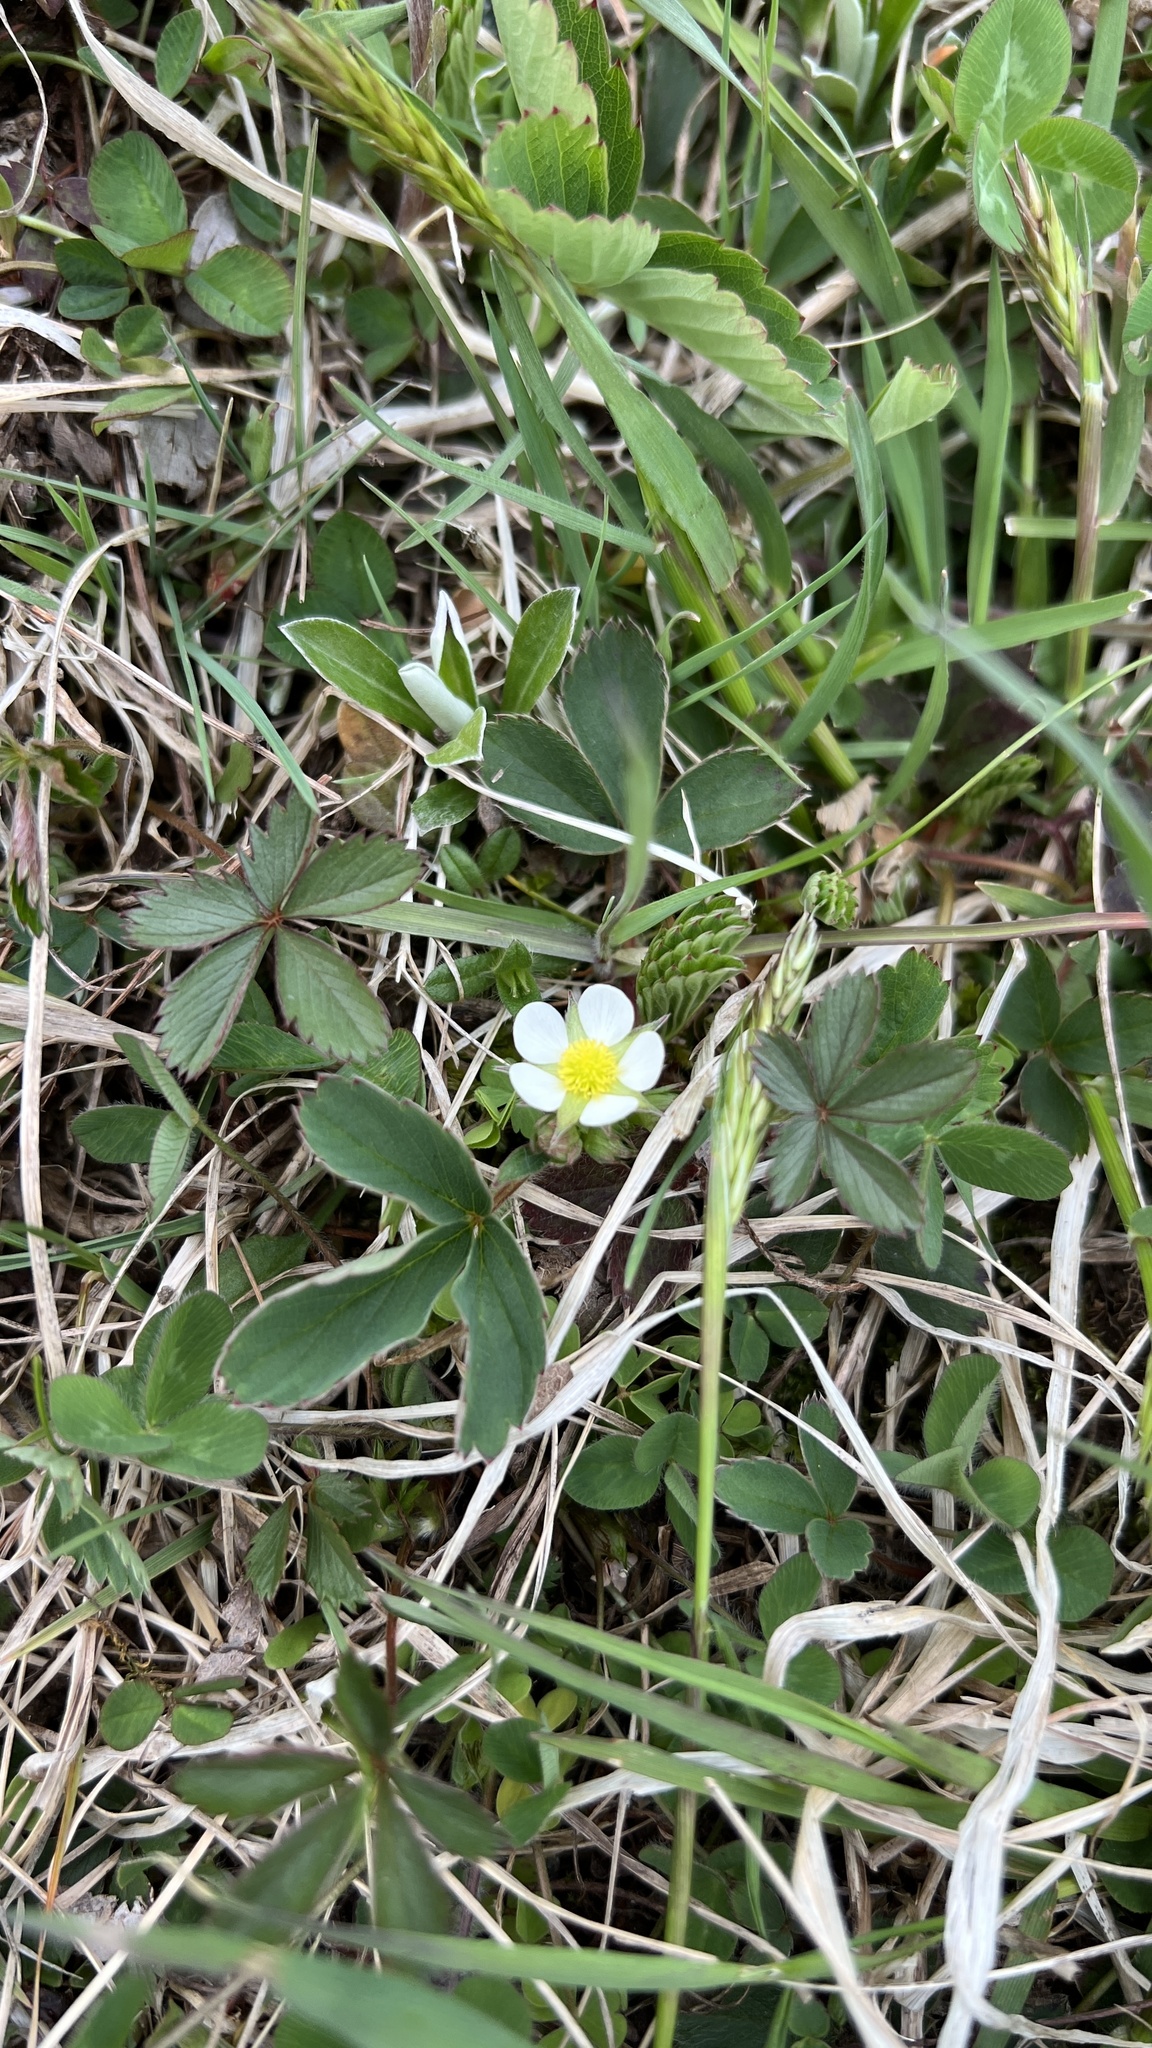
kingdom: Plantae
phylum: Tracheophyta
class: Magnoliopsida
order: Rosales
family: Rosaceae
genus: Fragaria
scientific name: Fragaria virginiana
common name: Thickleaved wild strawberry
